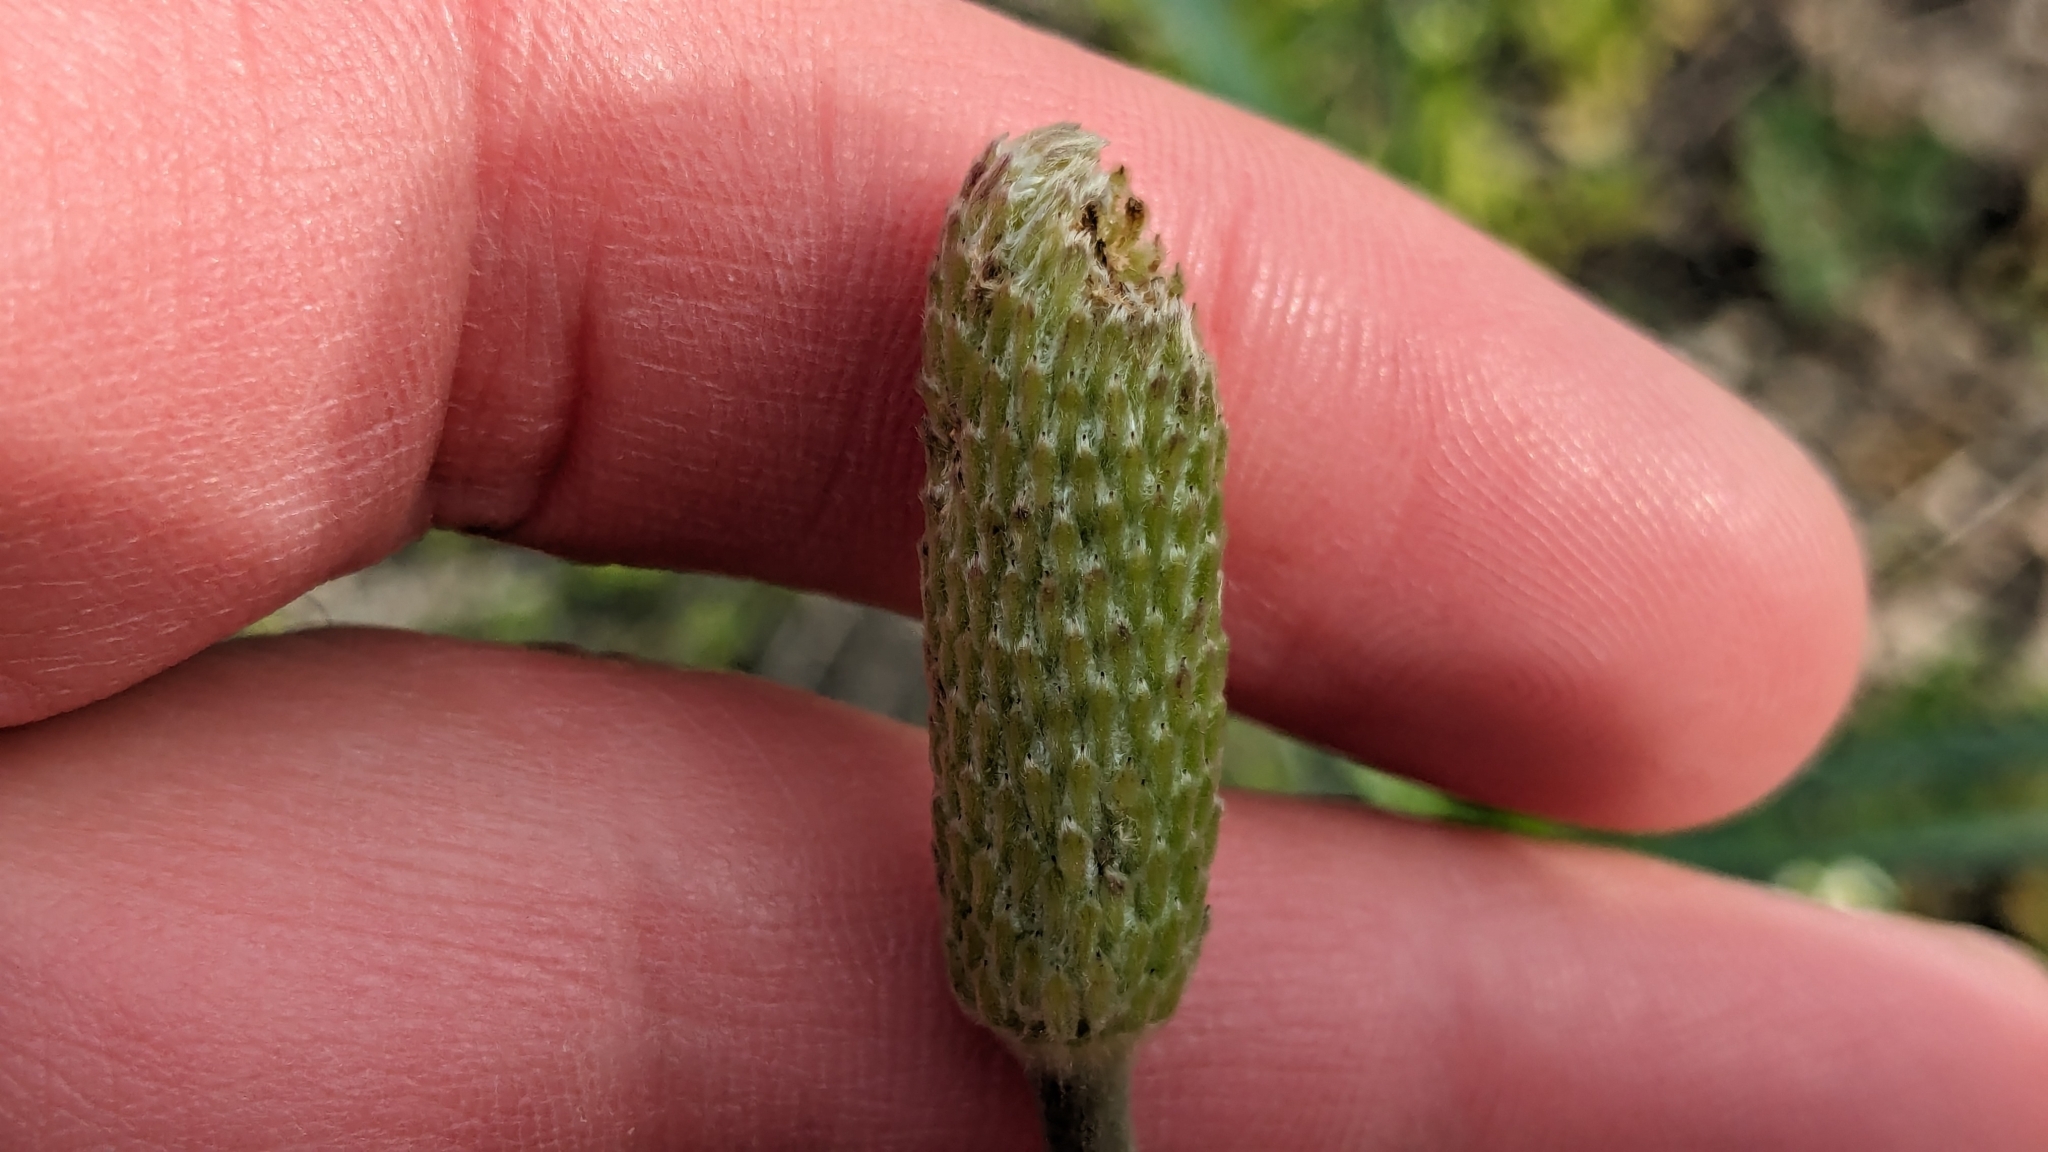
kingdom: Plantae
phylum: Tracheophyta
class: Magnoliopsida
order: Ranunculales
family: Ranunculaceae
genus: Anemone
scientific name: Anemone berlandieri
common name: Ten-petal anemone
